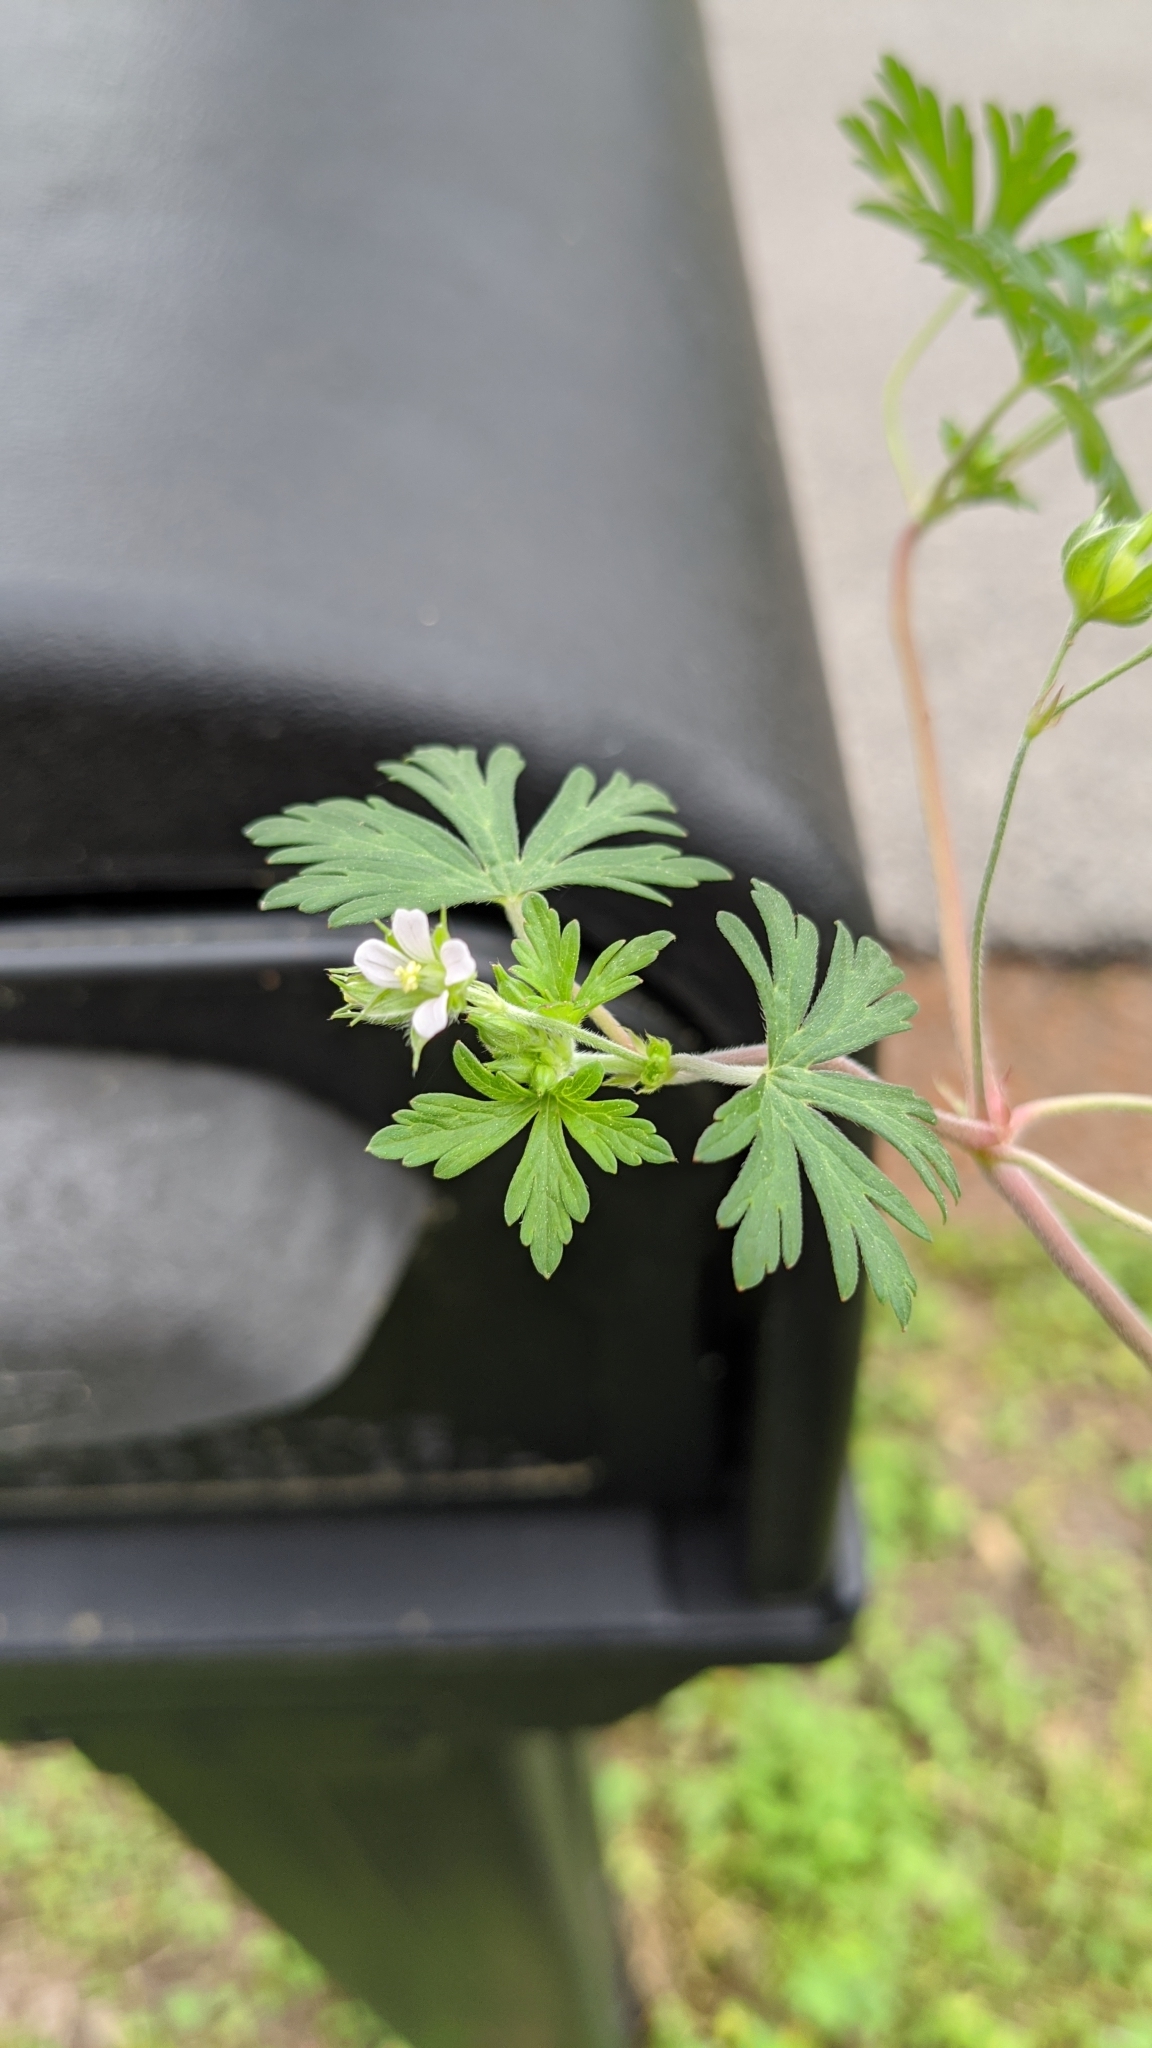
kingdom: Plantae
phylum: Tracheophyta
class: Magnoliopsida
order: Geraniales
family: Geraniaceae
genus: Geranium
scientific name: Geranium carolinianum
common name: Carolina crane's-bill
